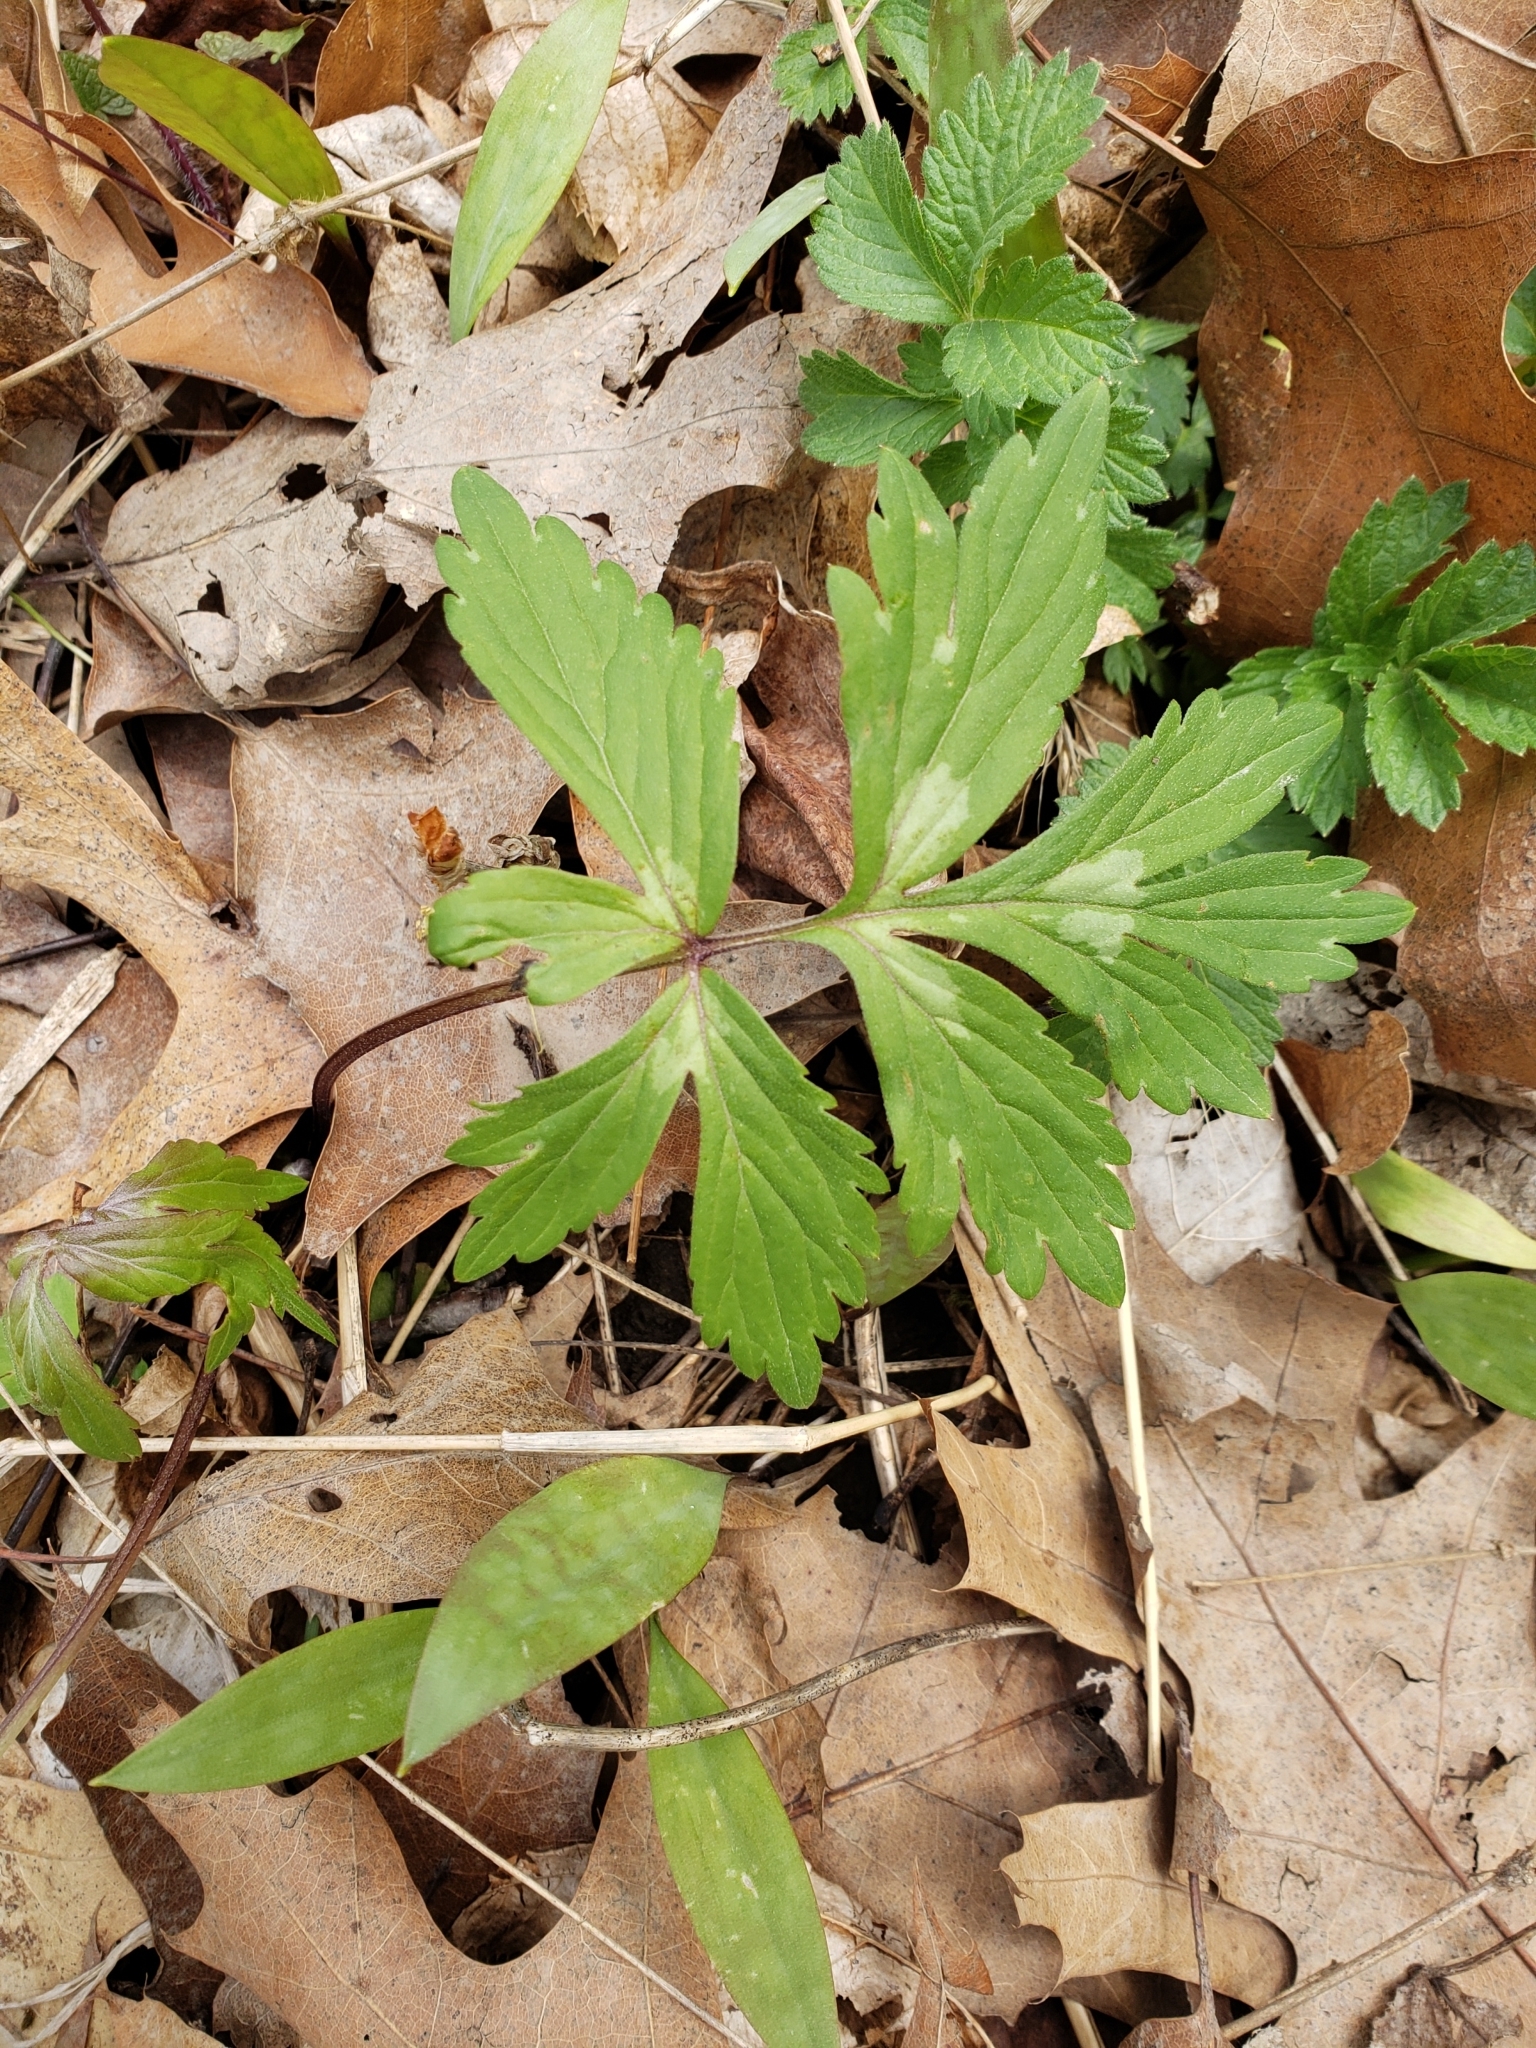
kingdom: Plantae
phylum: Tracheophyta
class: Magnoliopsida
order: Boraginales
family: Hydrophyllaceae
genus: Hydrophyllum
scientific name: Hydrophyllum virginianum
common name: Virginia waterleaf
